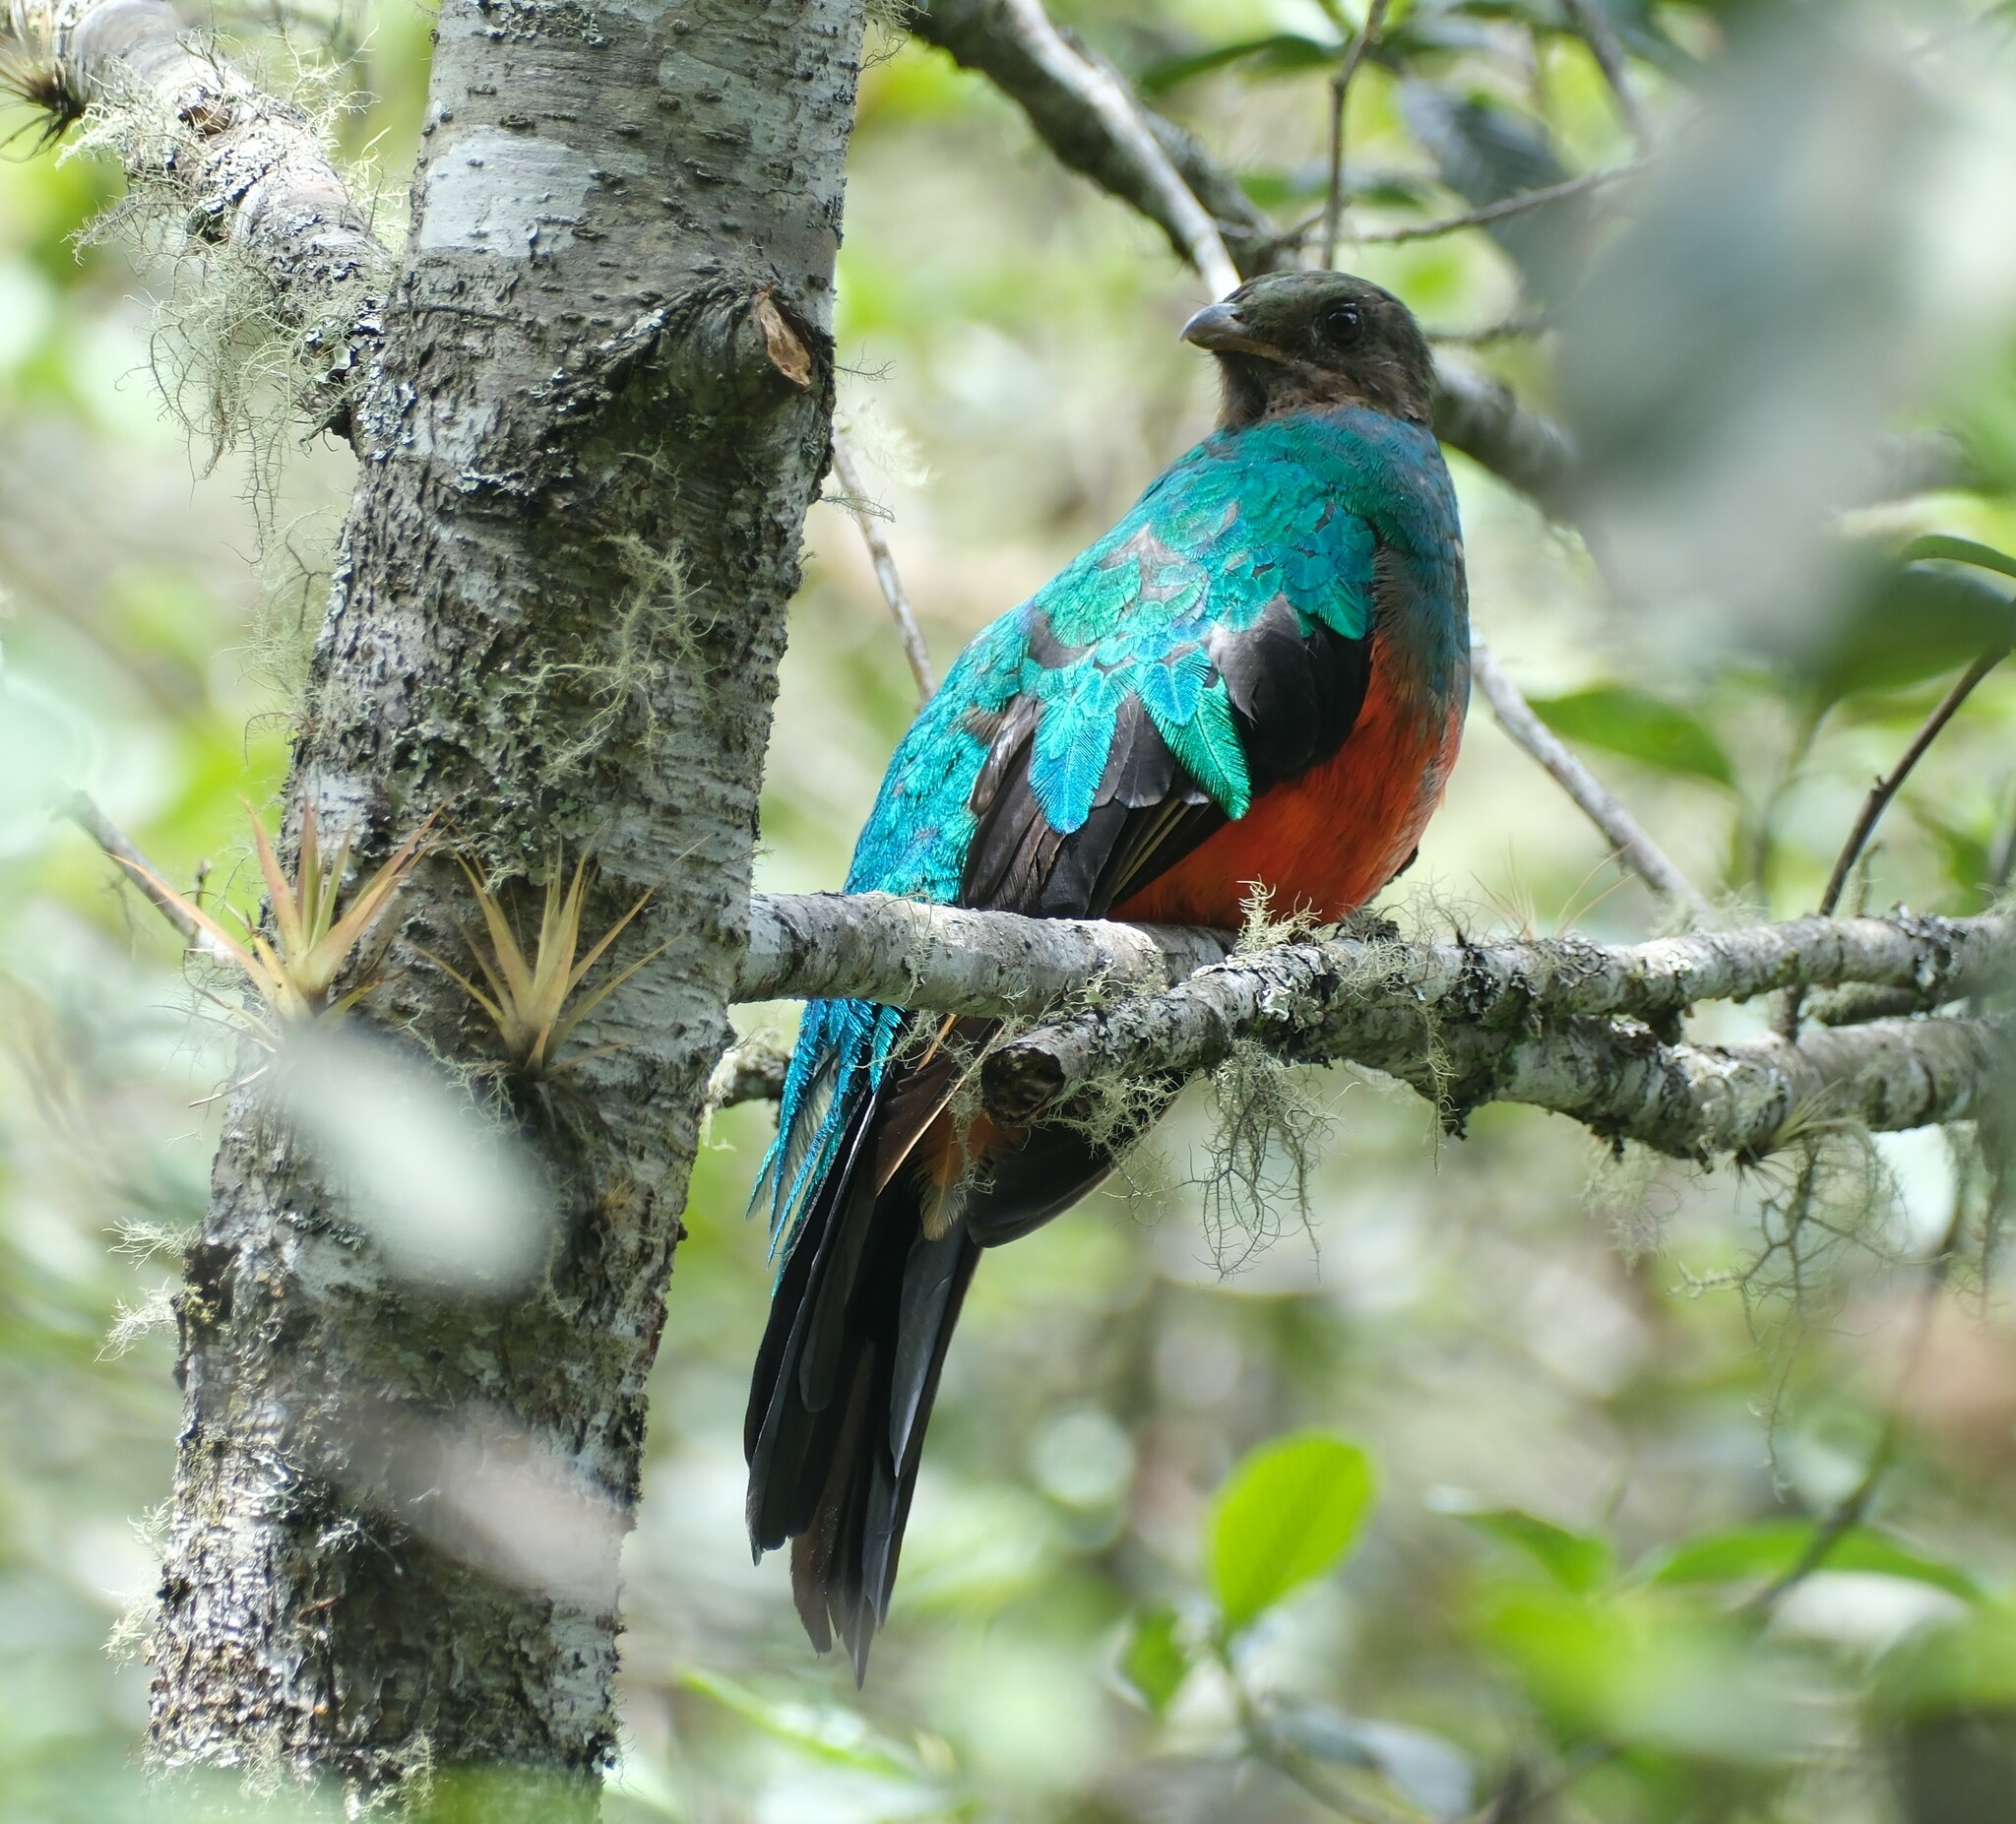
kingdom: Animalia
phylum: Chordata
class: Aves
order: Trogoniformes
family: Trogonidae
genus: Pharomachrus
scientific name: Pharomachrus auriceps
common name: Golden-headed quetzal
